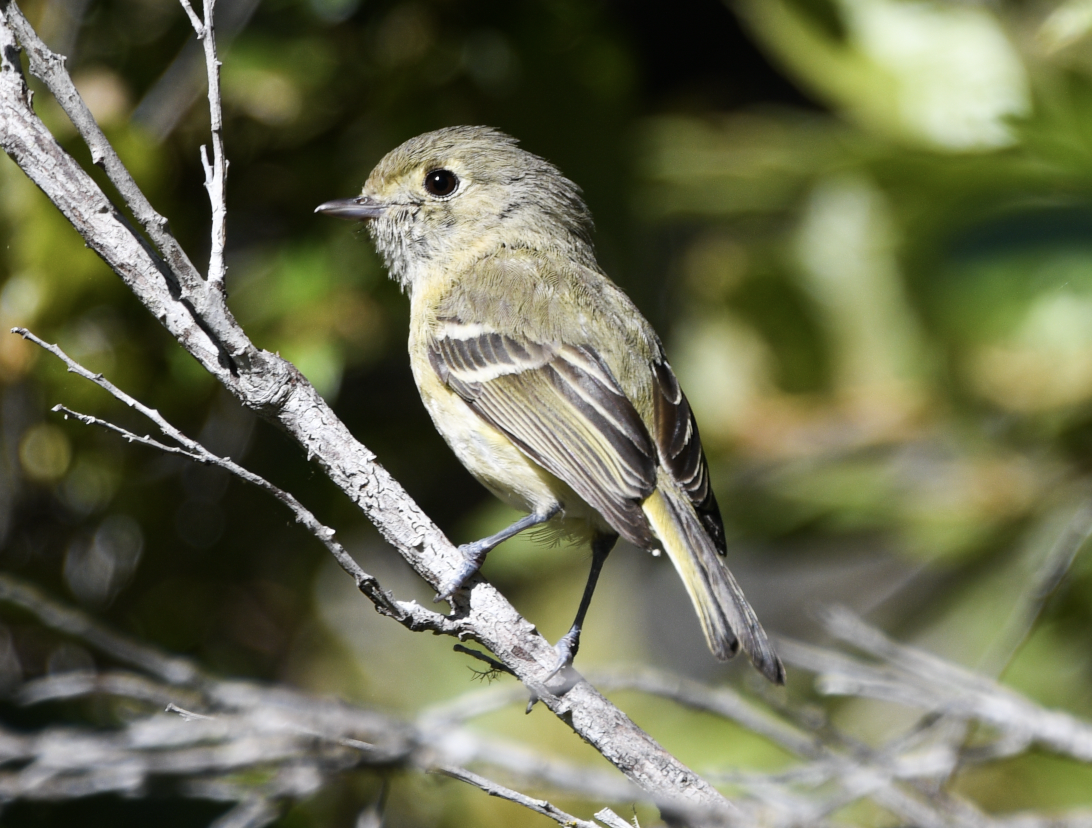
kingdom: Animalia
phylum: Chordata
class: Aves
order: Passeriformes
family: Vireonidae
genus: Vireo
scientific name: Vireo huttoni
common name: Hutton's vireo
